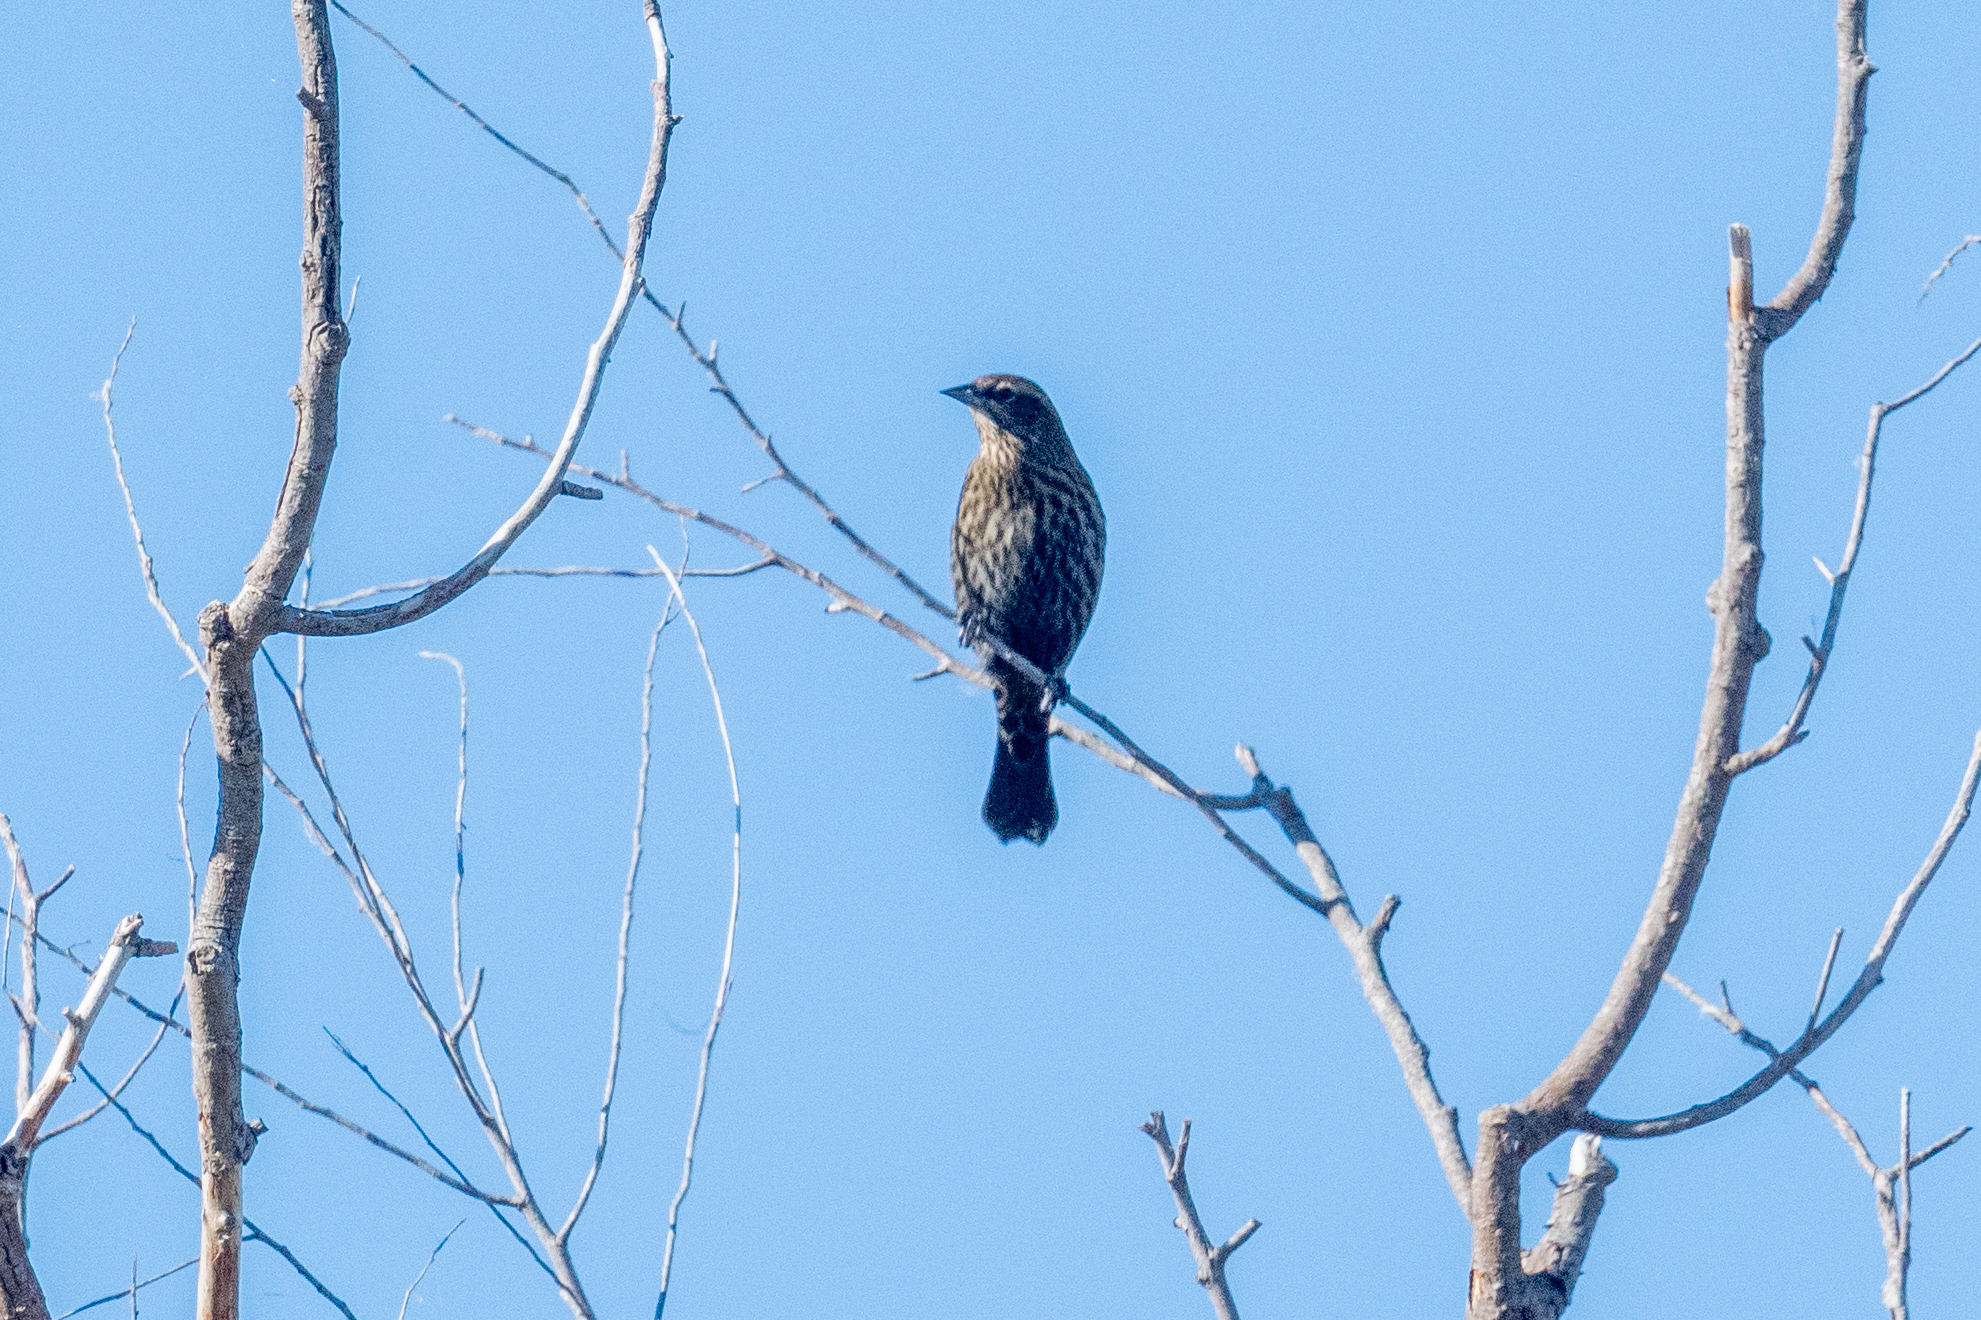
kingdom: Animalia
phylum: Chordata
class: Aves
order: Passeriformes
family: Icteridae
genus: Agelaius
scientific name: Agelaius phoeniceus
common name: Red-winged blackbird
